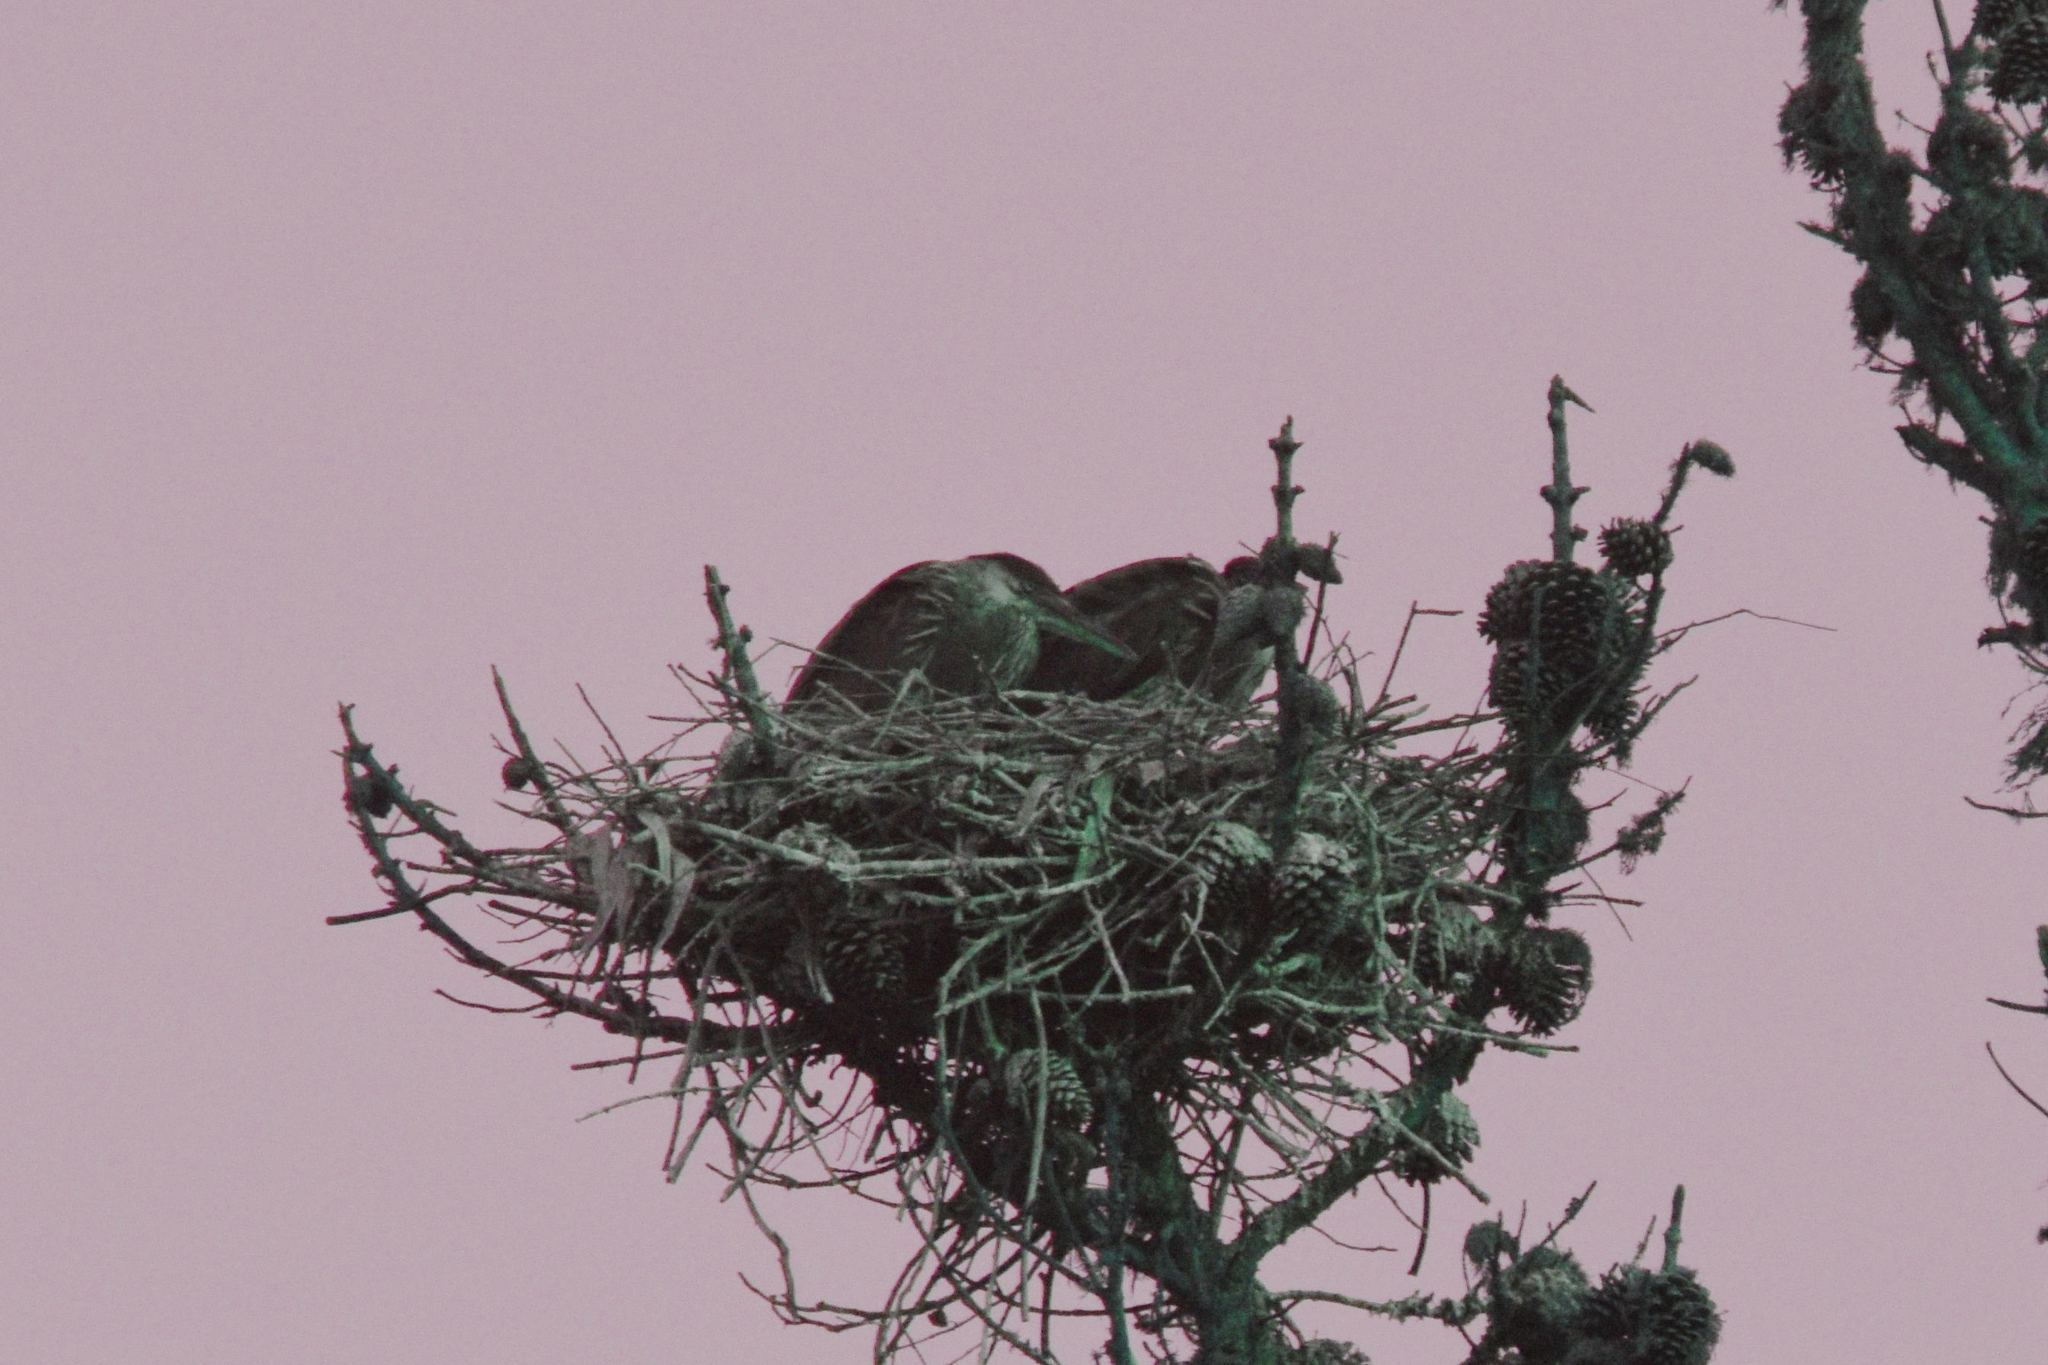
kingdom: Animalia
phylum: Chordata
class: Aves
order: Pelecaniformes
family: Ardeidae
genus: Ardea
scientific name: Ardea herodias
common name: Great blue heron
